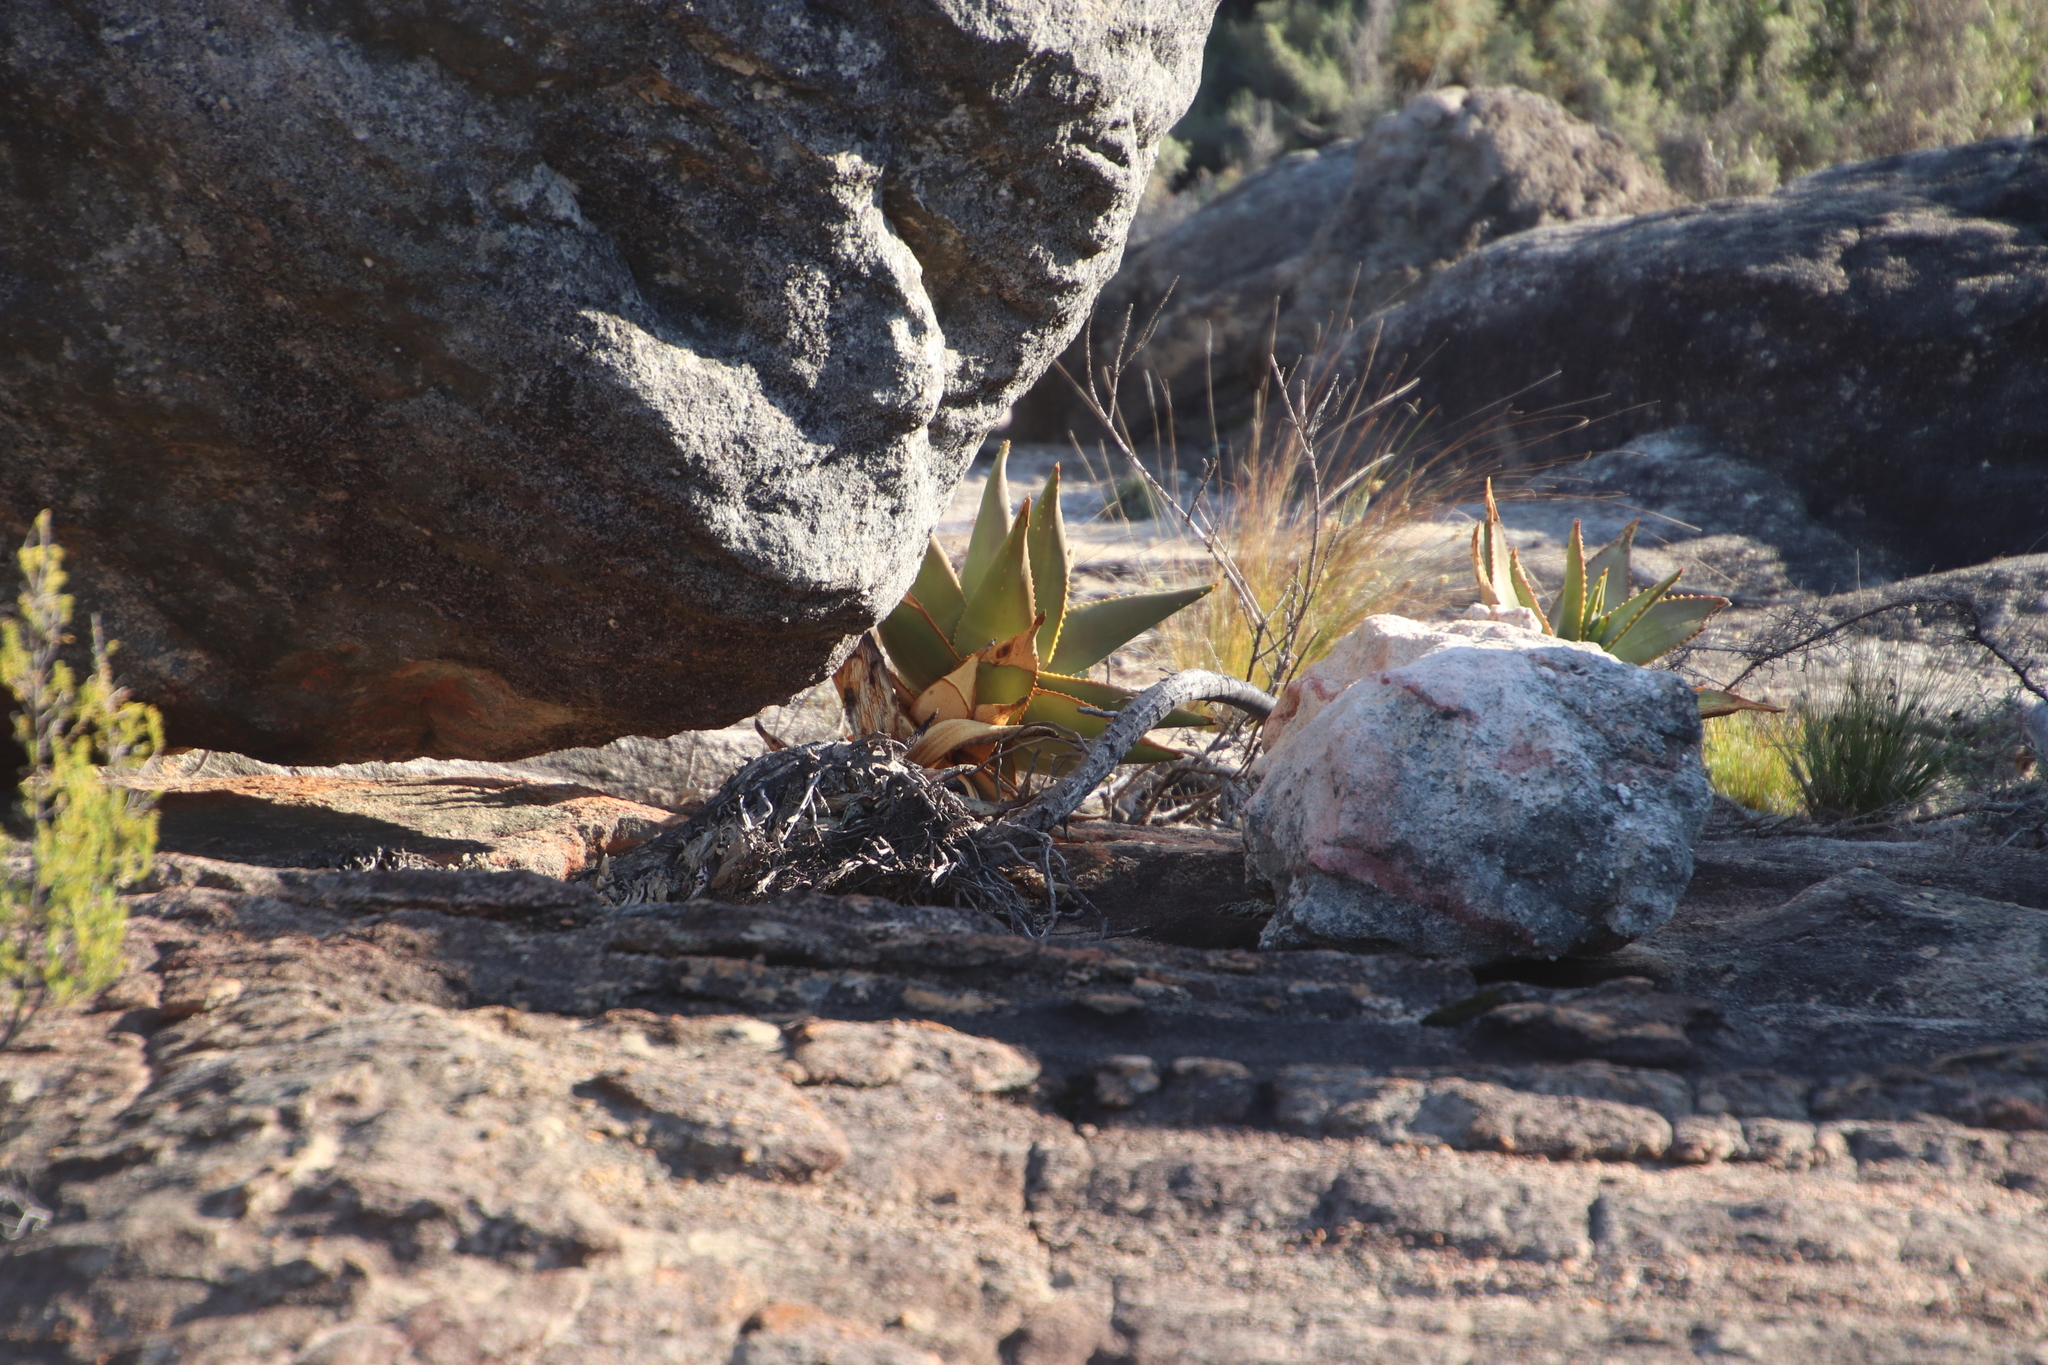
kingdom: Plantae
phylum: Tracheophyta
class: Liliopsida
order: Asparagales
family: Asphodelaceae
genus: Aloe
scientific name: Aloe perfoliata
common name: Mitra aloe
